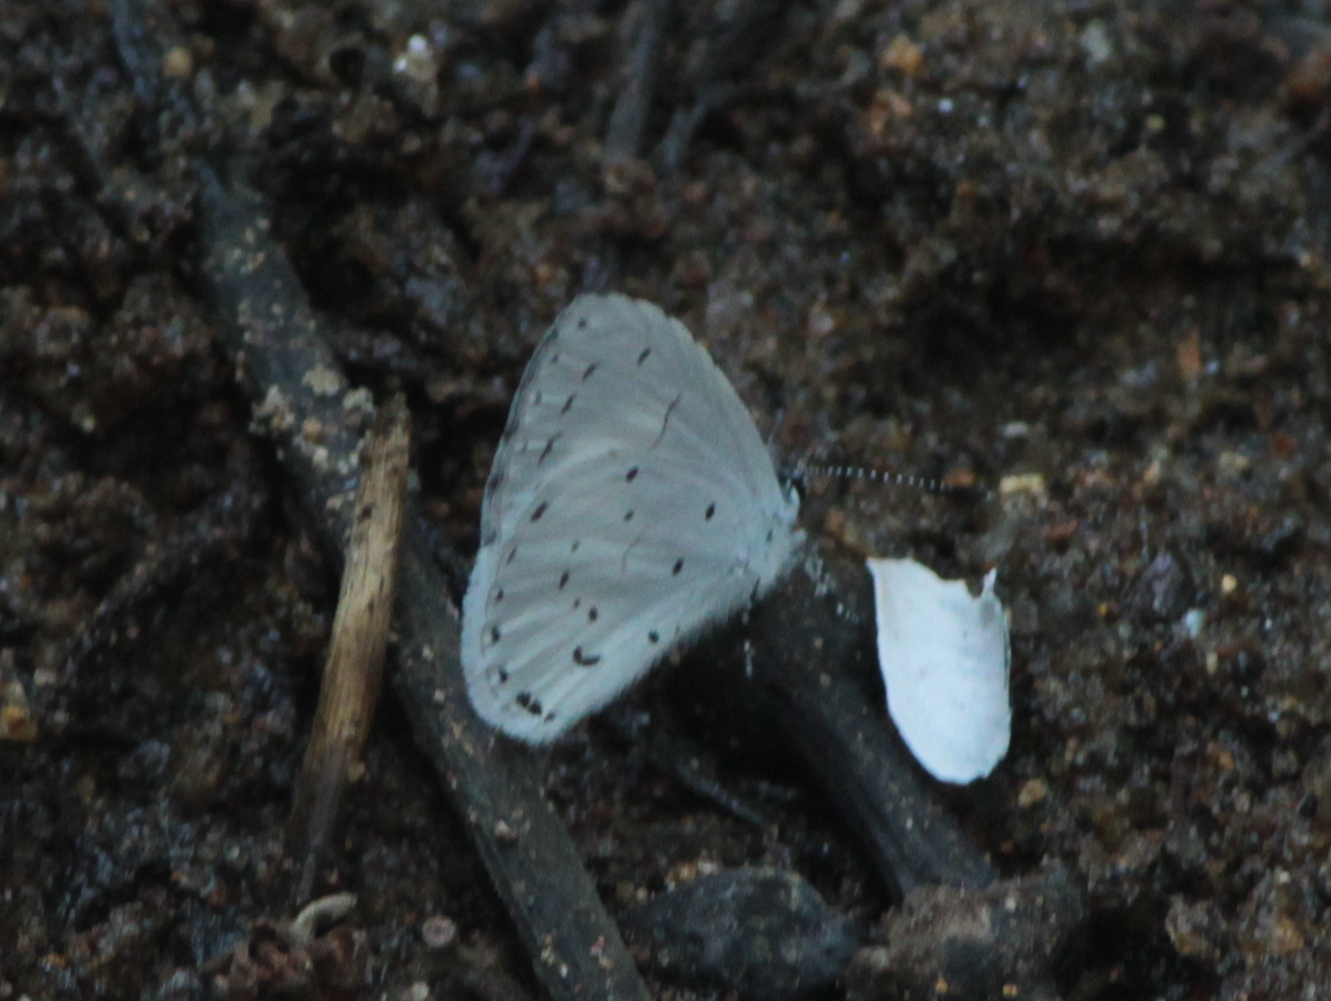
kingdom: Animalia
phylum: Arthropoda
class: Insecta
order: Lepidoptera
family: Lycaenidae
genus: Udara
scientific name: Udara akasa
